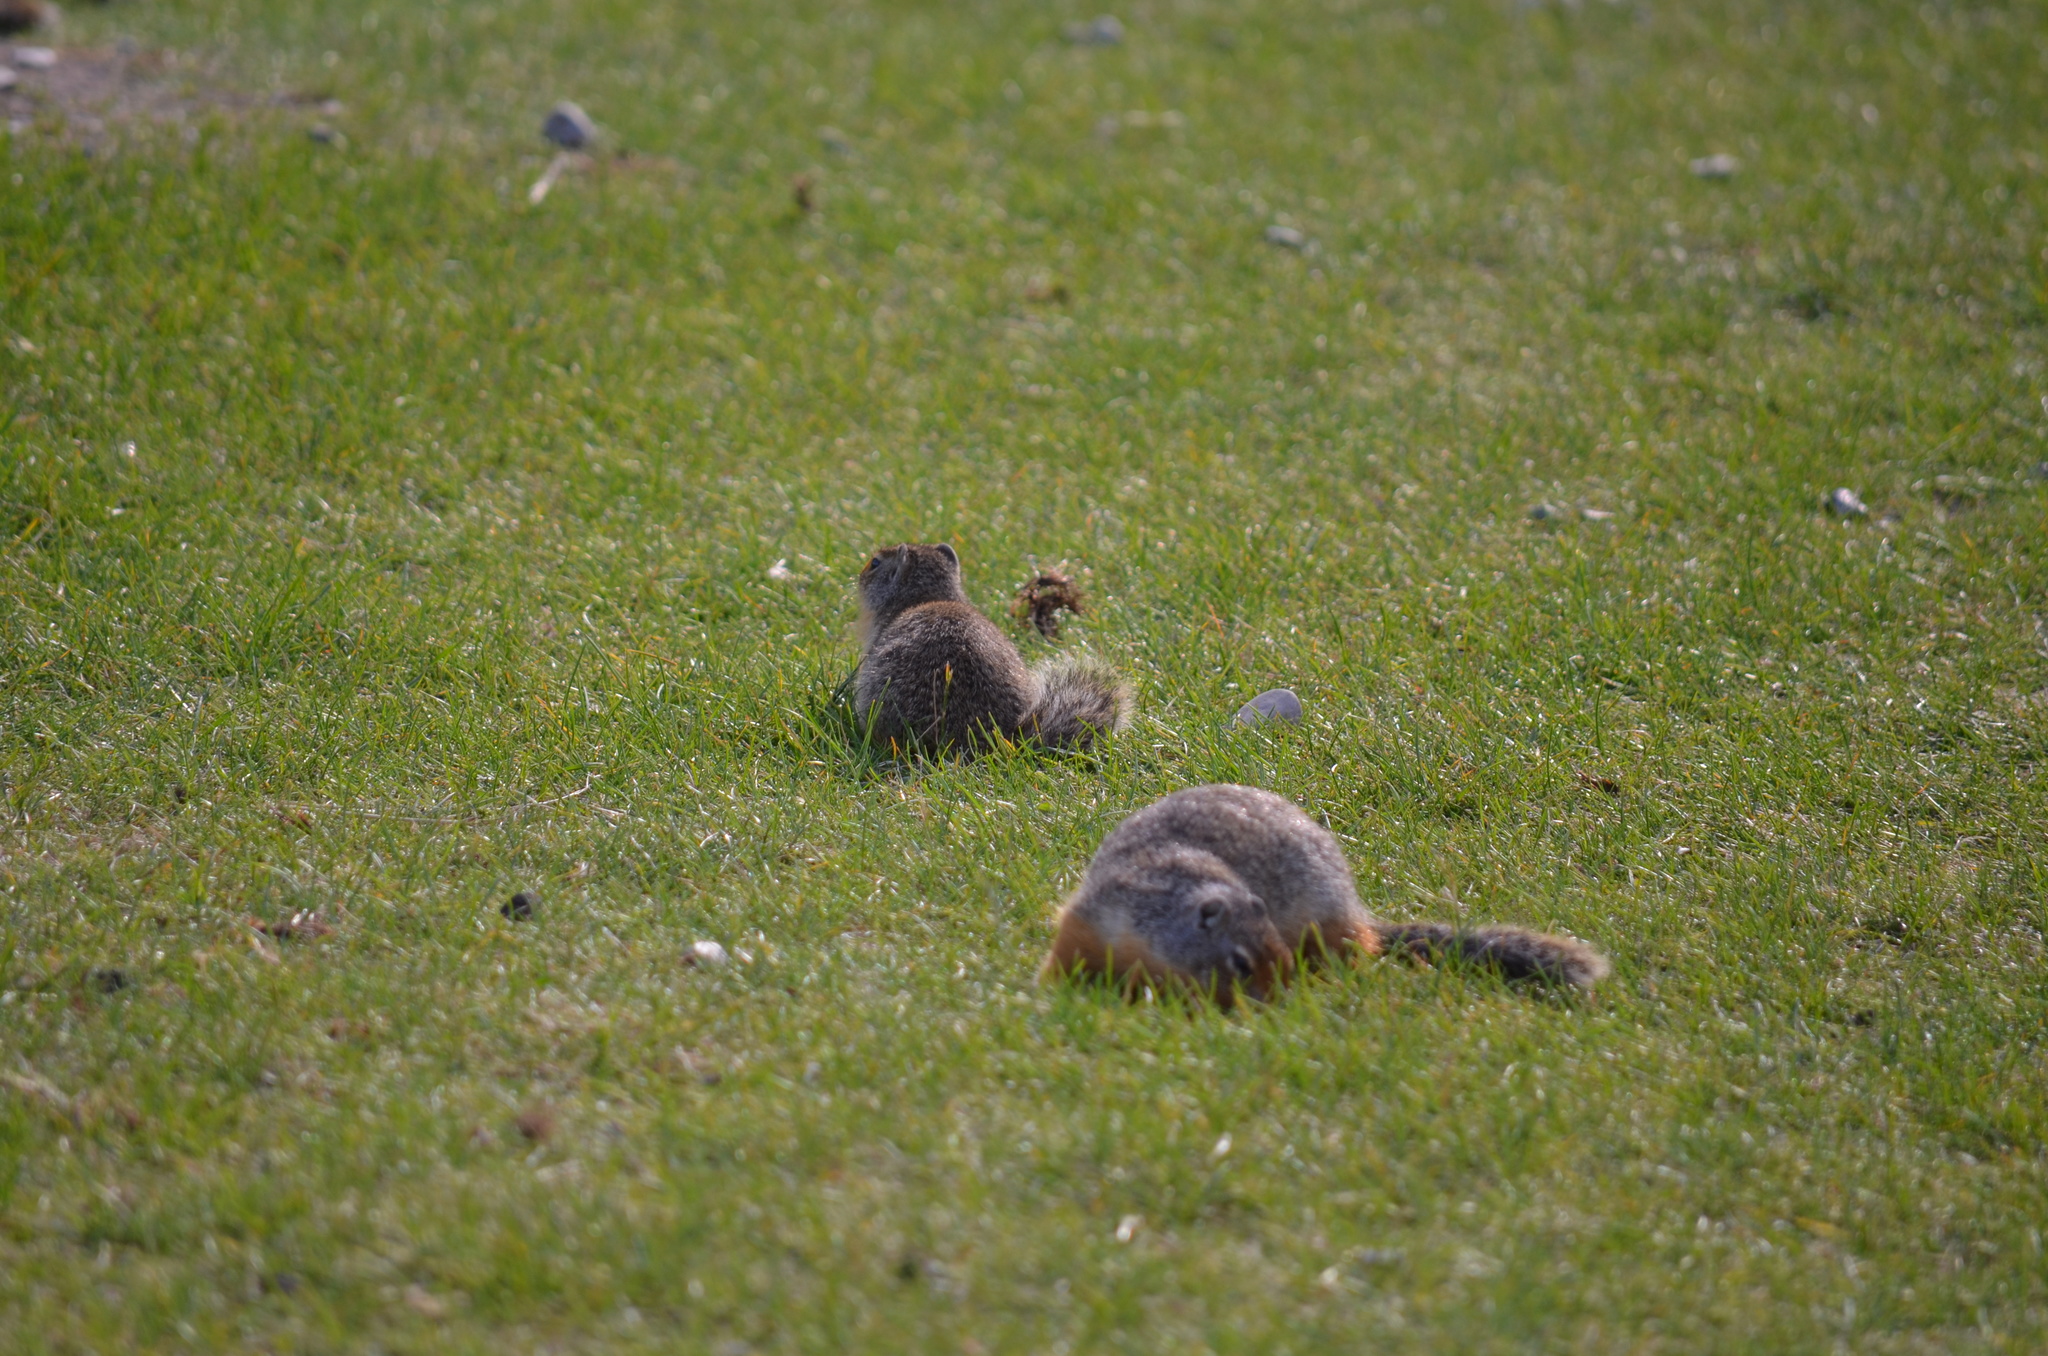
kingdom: Animalia
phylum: Chordata
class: Mammalia
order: Rodentia
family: Sciuridae
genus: Urocitellus
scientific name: Urocitellus columbianus
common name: Columbian ground squirrel
